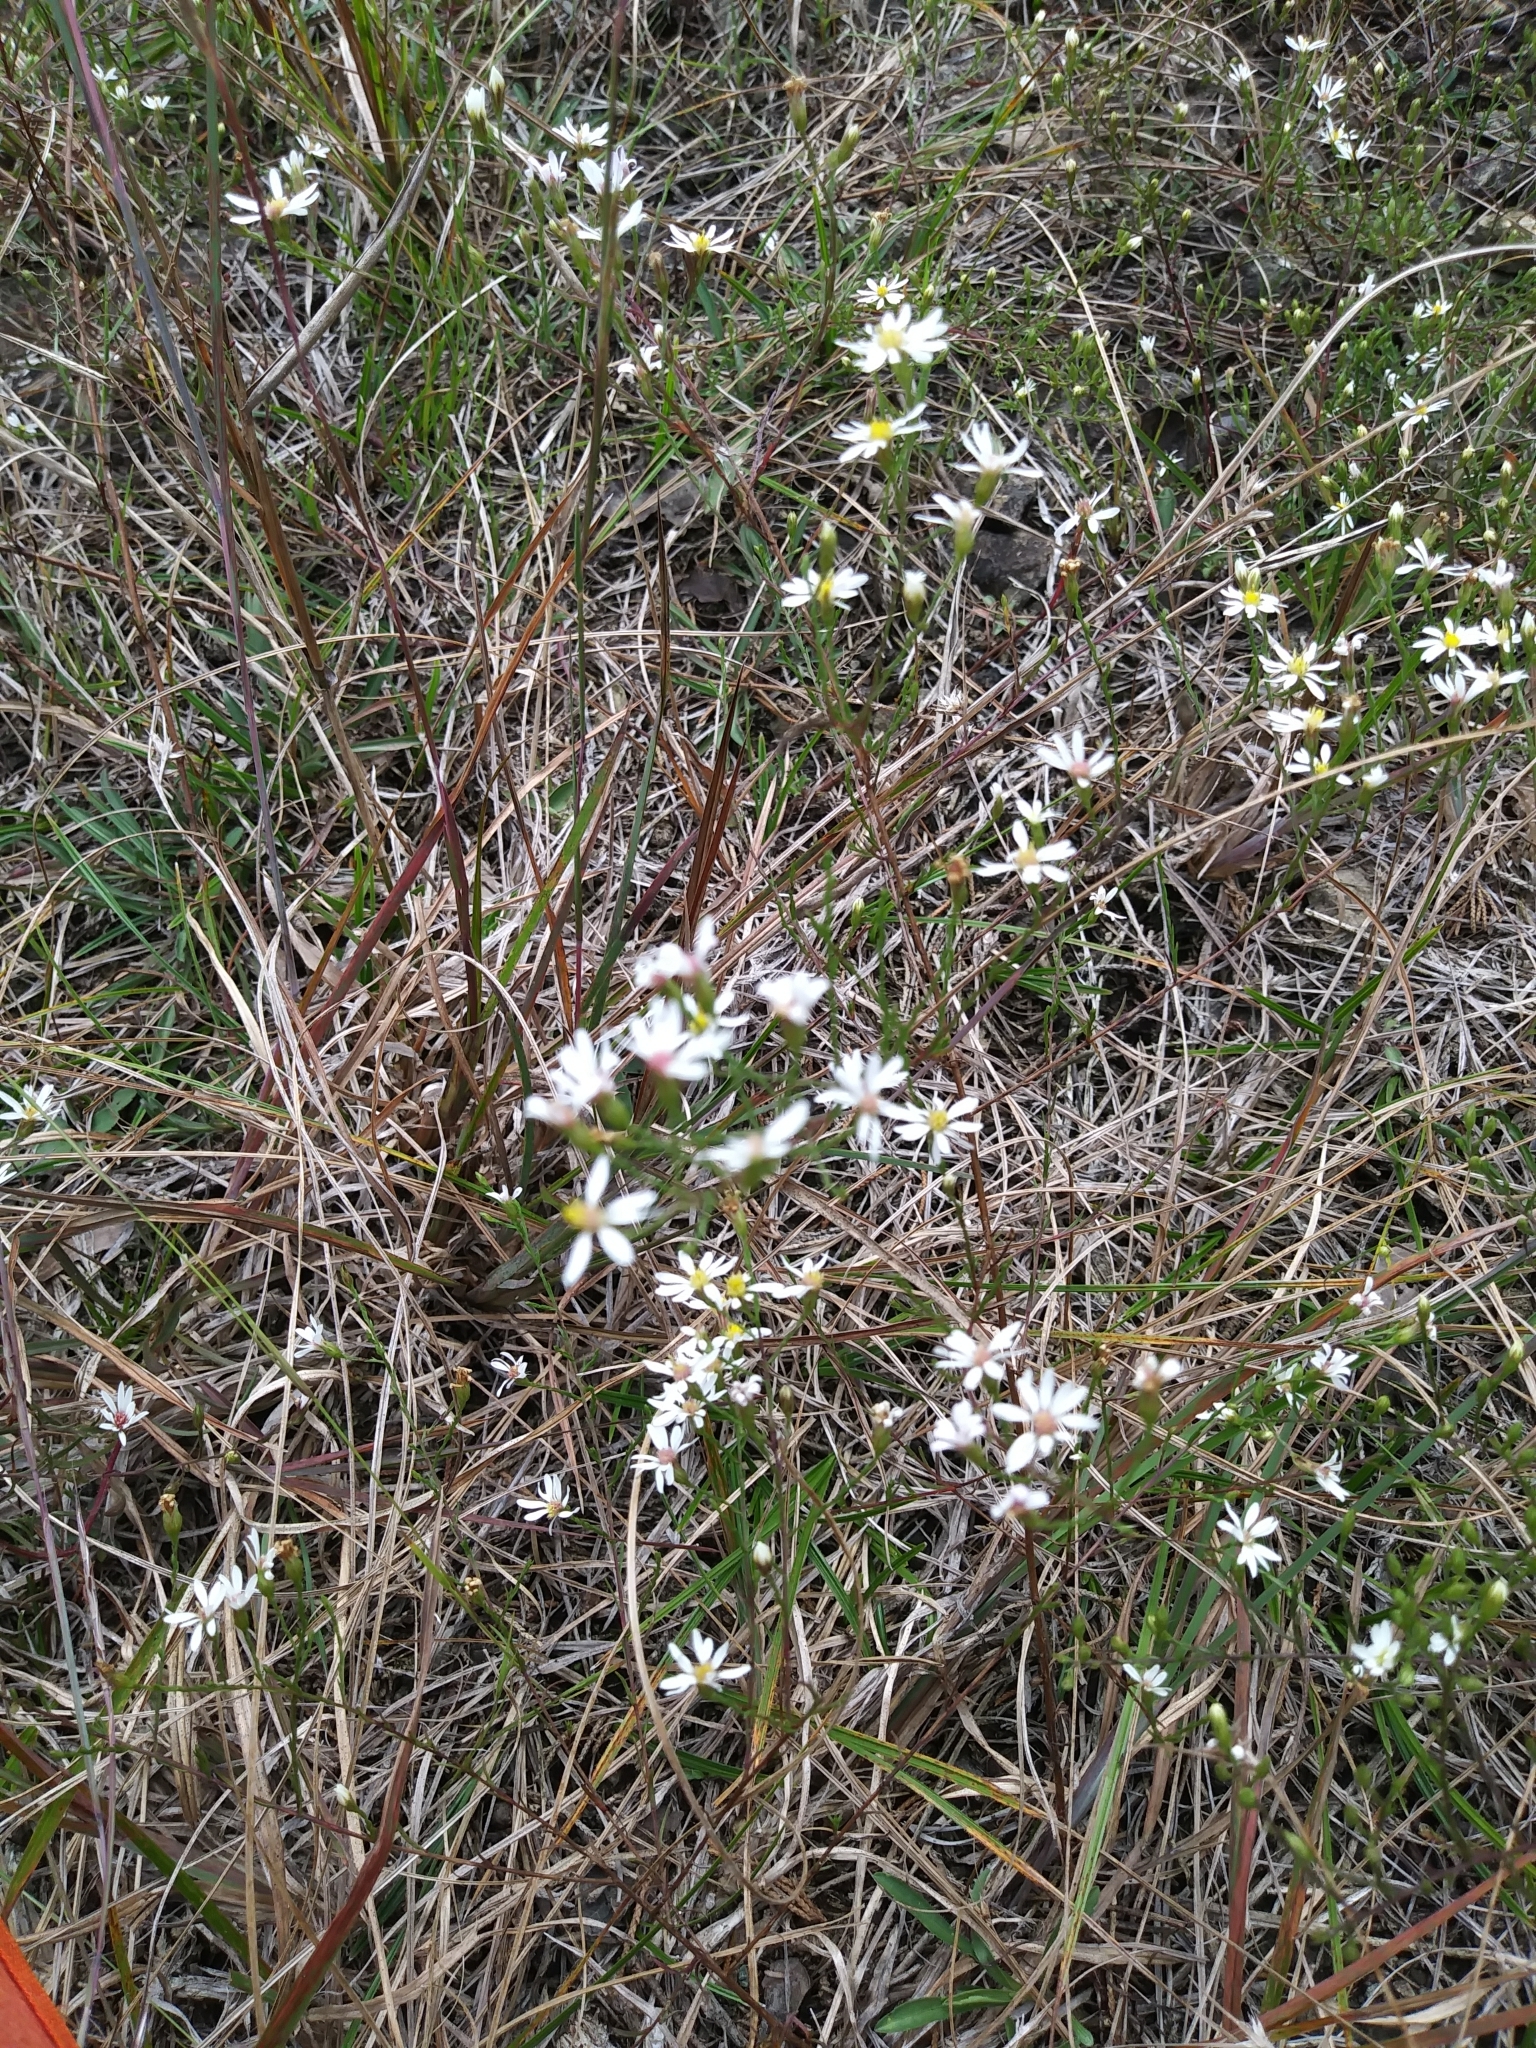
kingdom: Plantae
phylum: Tracheophyta
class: Magnoliopsida
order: Asterales
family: Asteraceae
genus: Symphyotrichum
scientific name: Symphyotrichum depauperatum
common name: Serpentine aster
